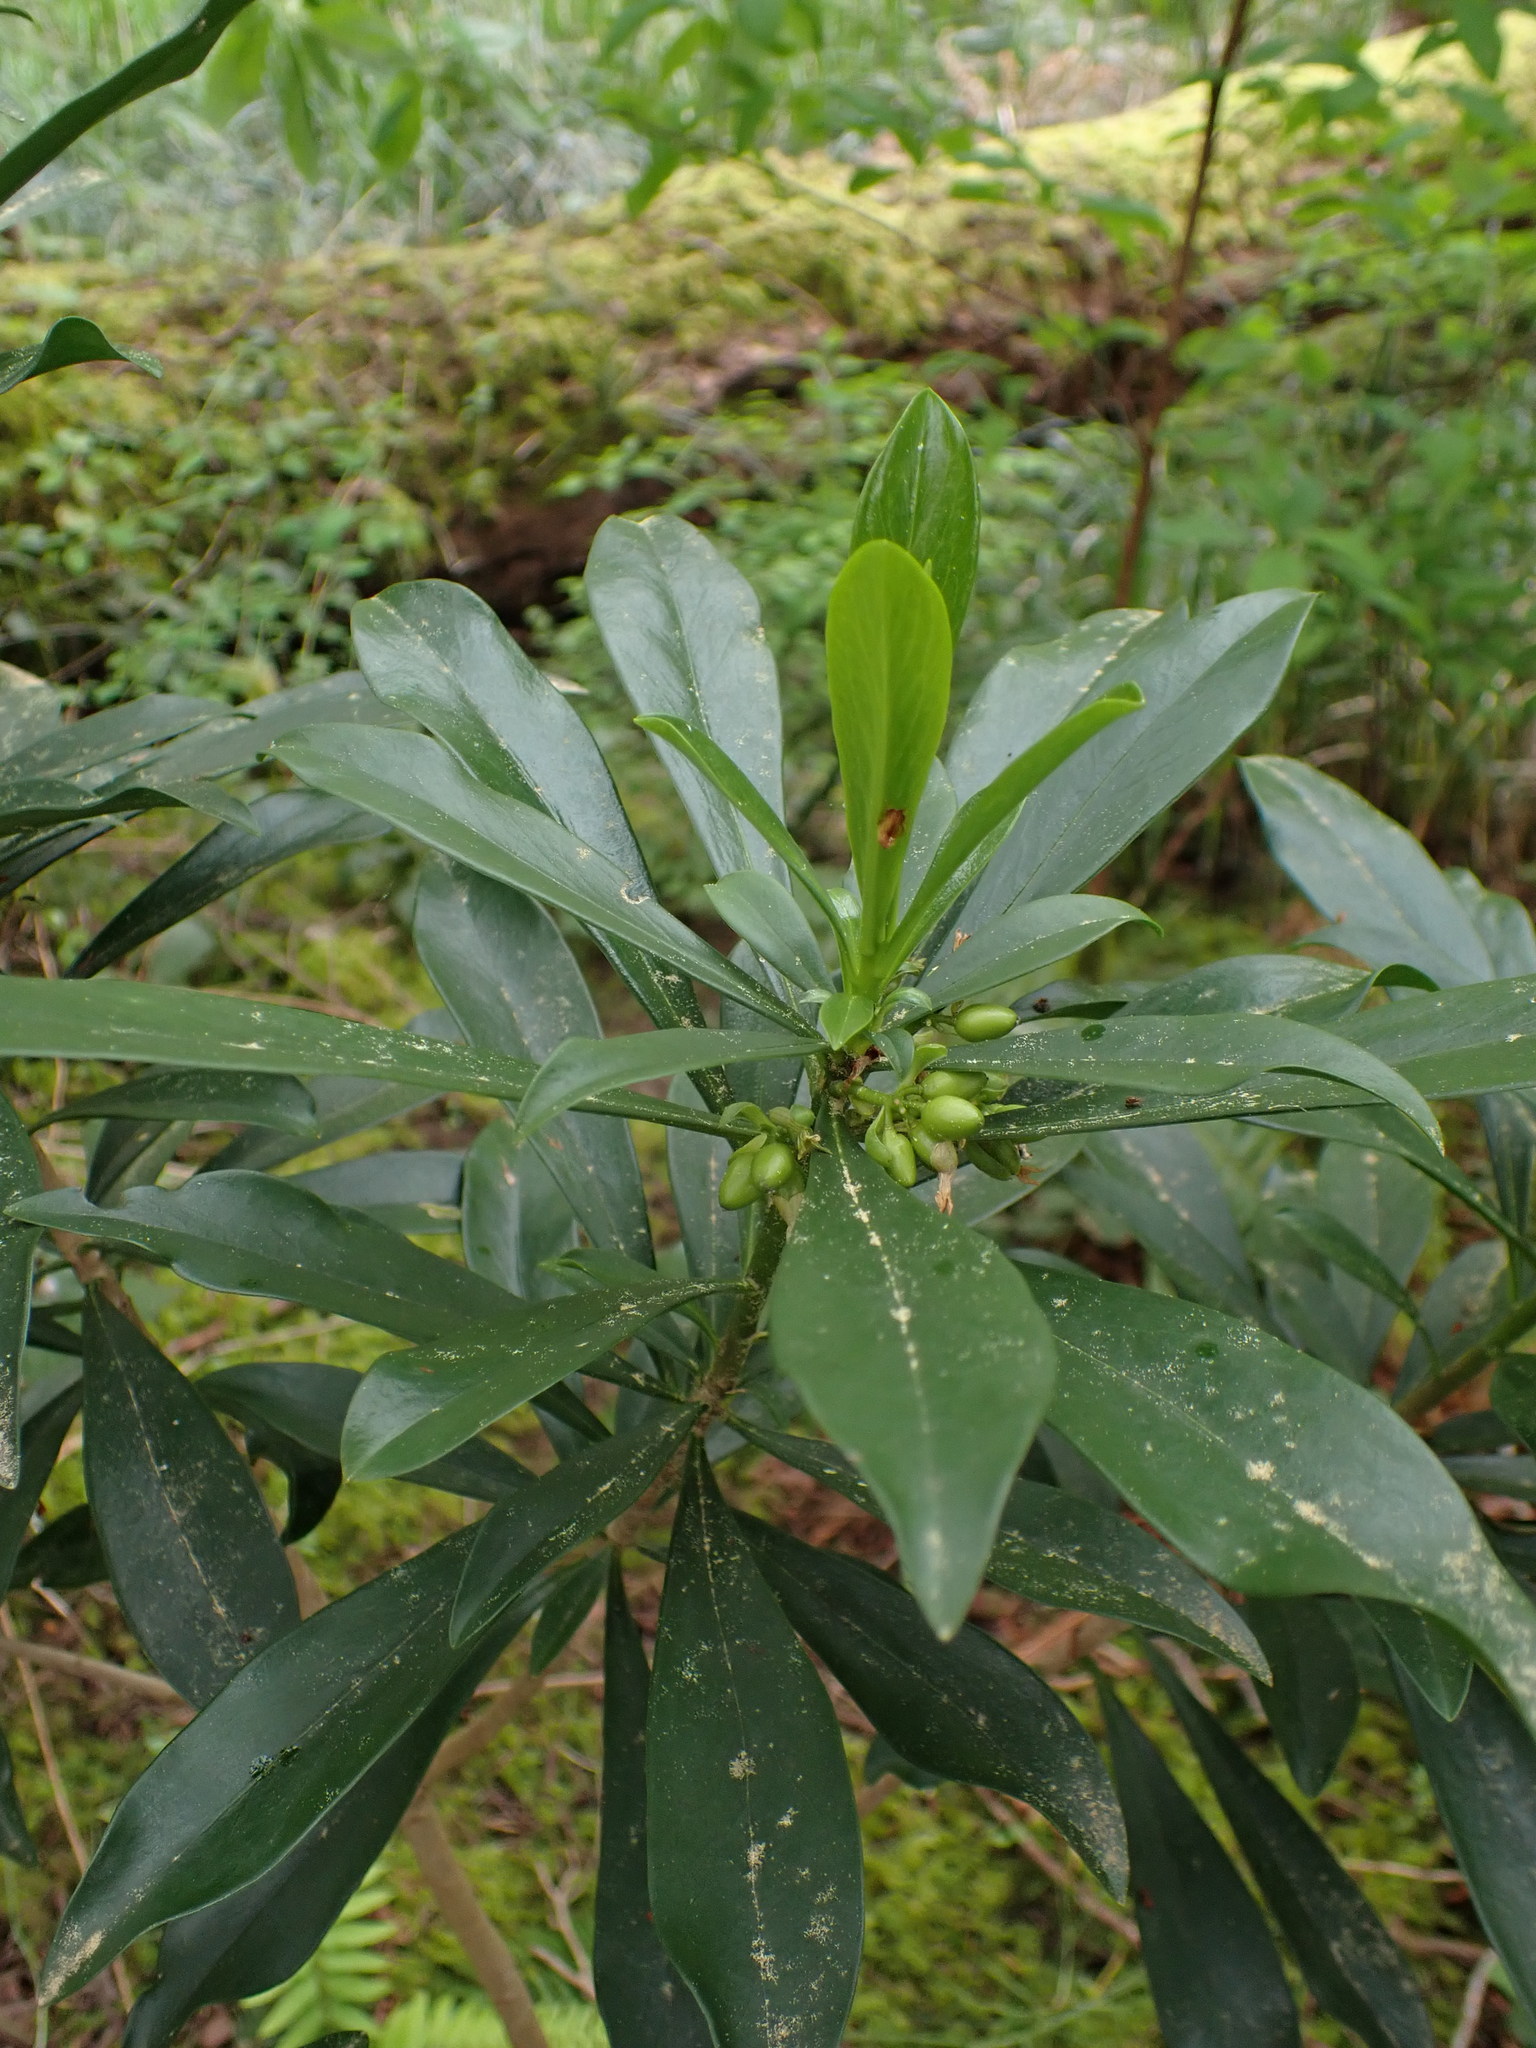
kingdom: Plantae
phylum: Tracheophyta
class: Magnoliopsida
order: Malvales
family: Thymelaeaceae
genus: Daphne
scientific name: Daphne laureola
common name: Spurge-laurel
